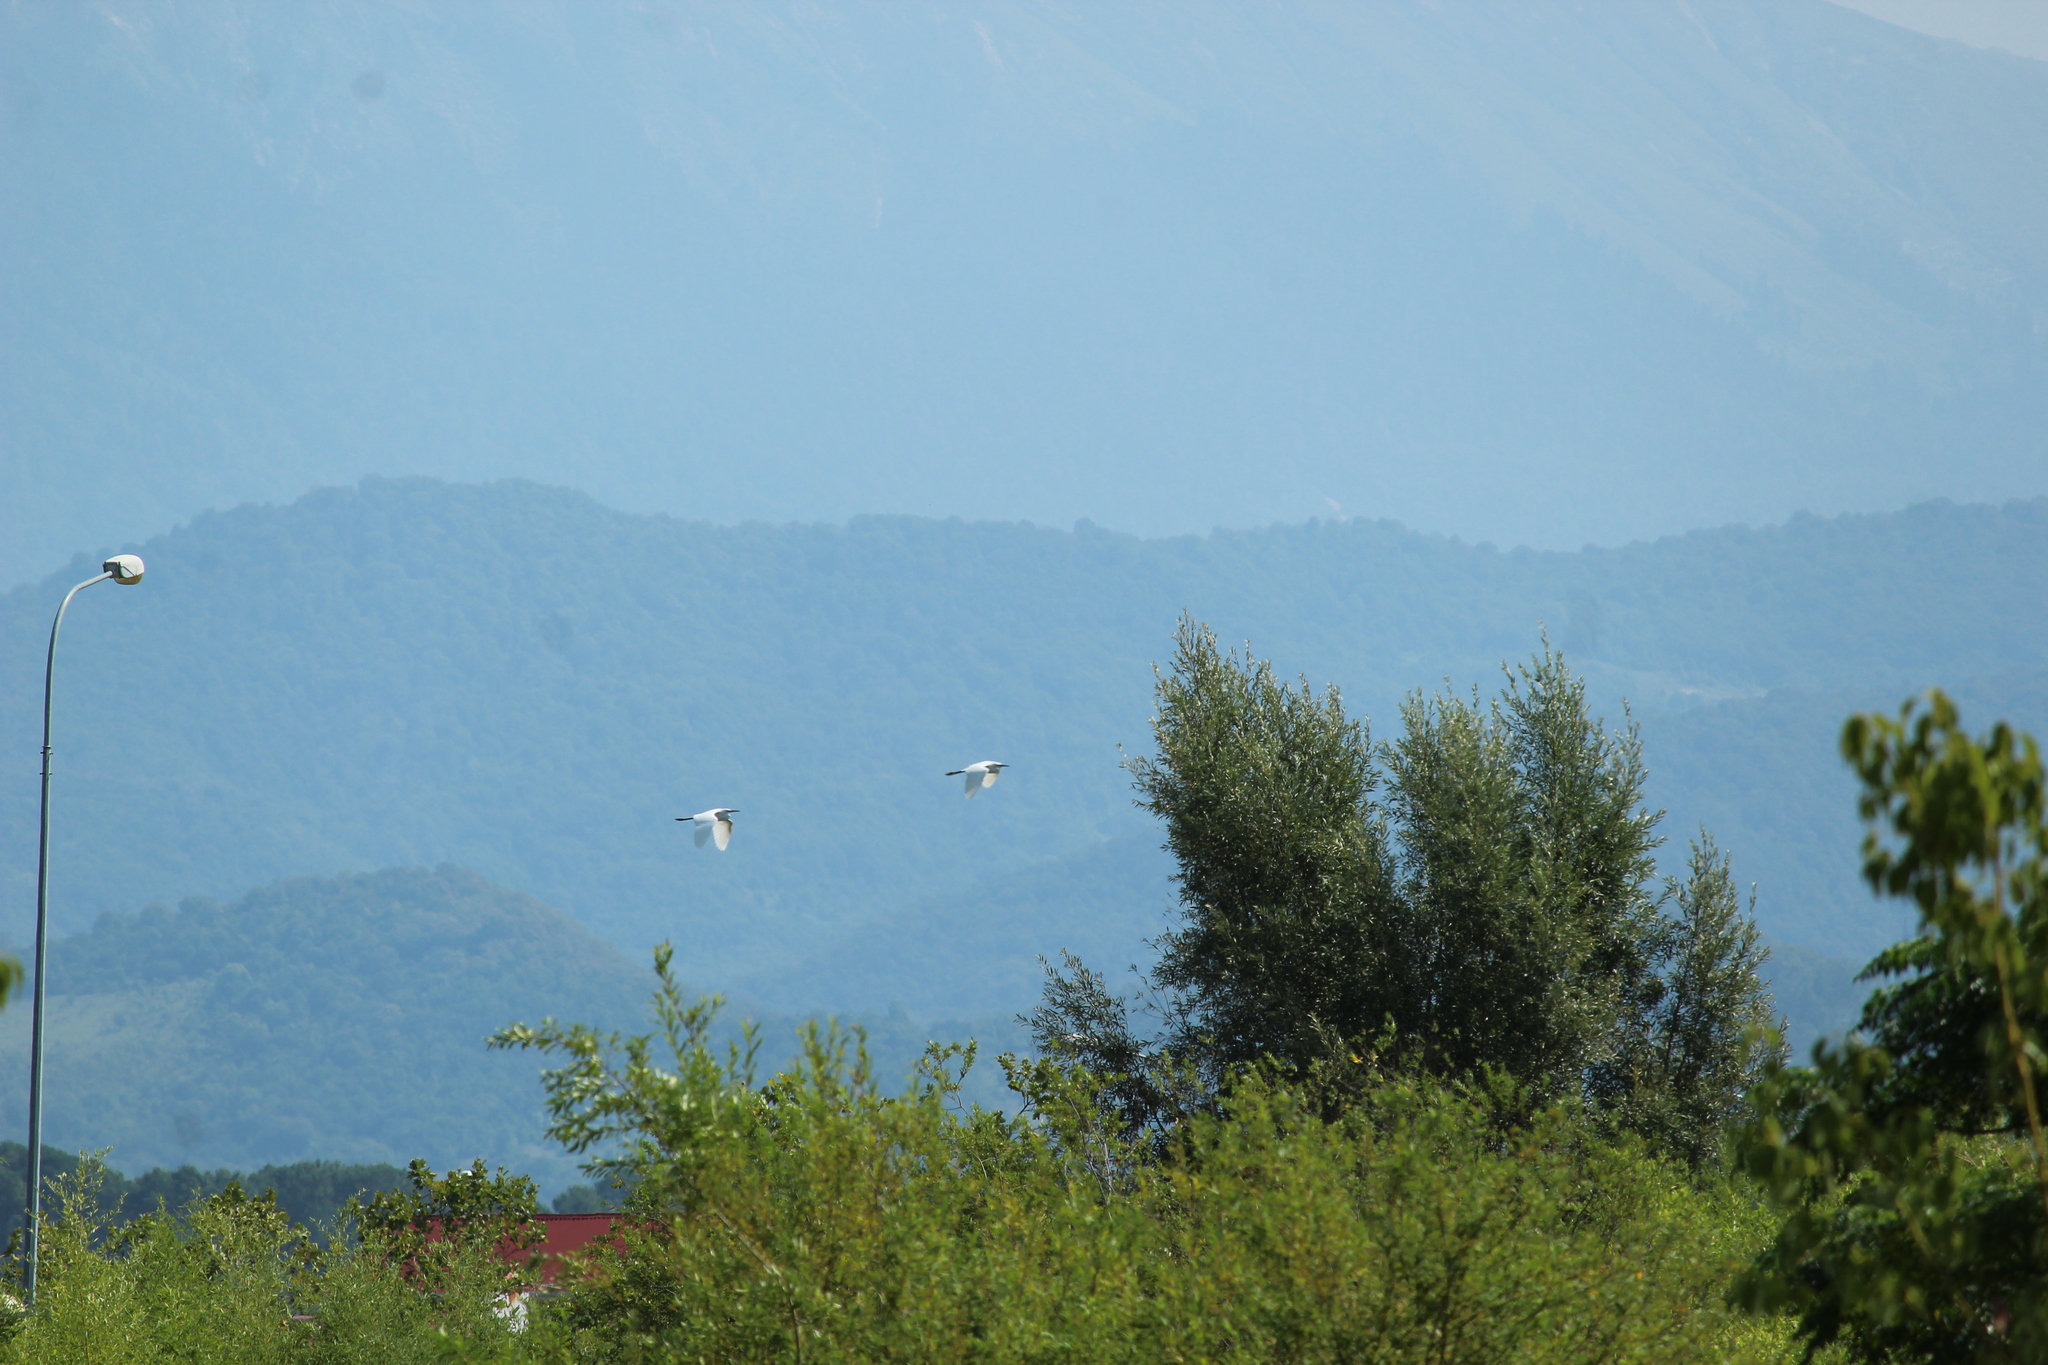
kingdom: Animalia
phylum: Chordata
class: Aves
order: Pelecaniformes
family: Ardeidae
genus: Egretta
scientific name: Egretta garzetta
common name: Little egret
